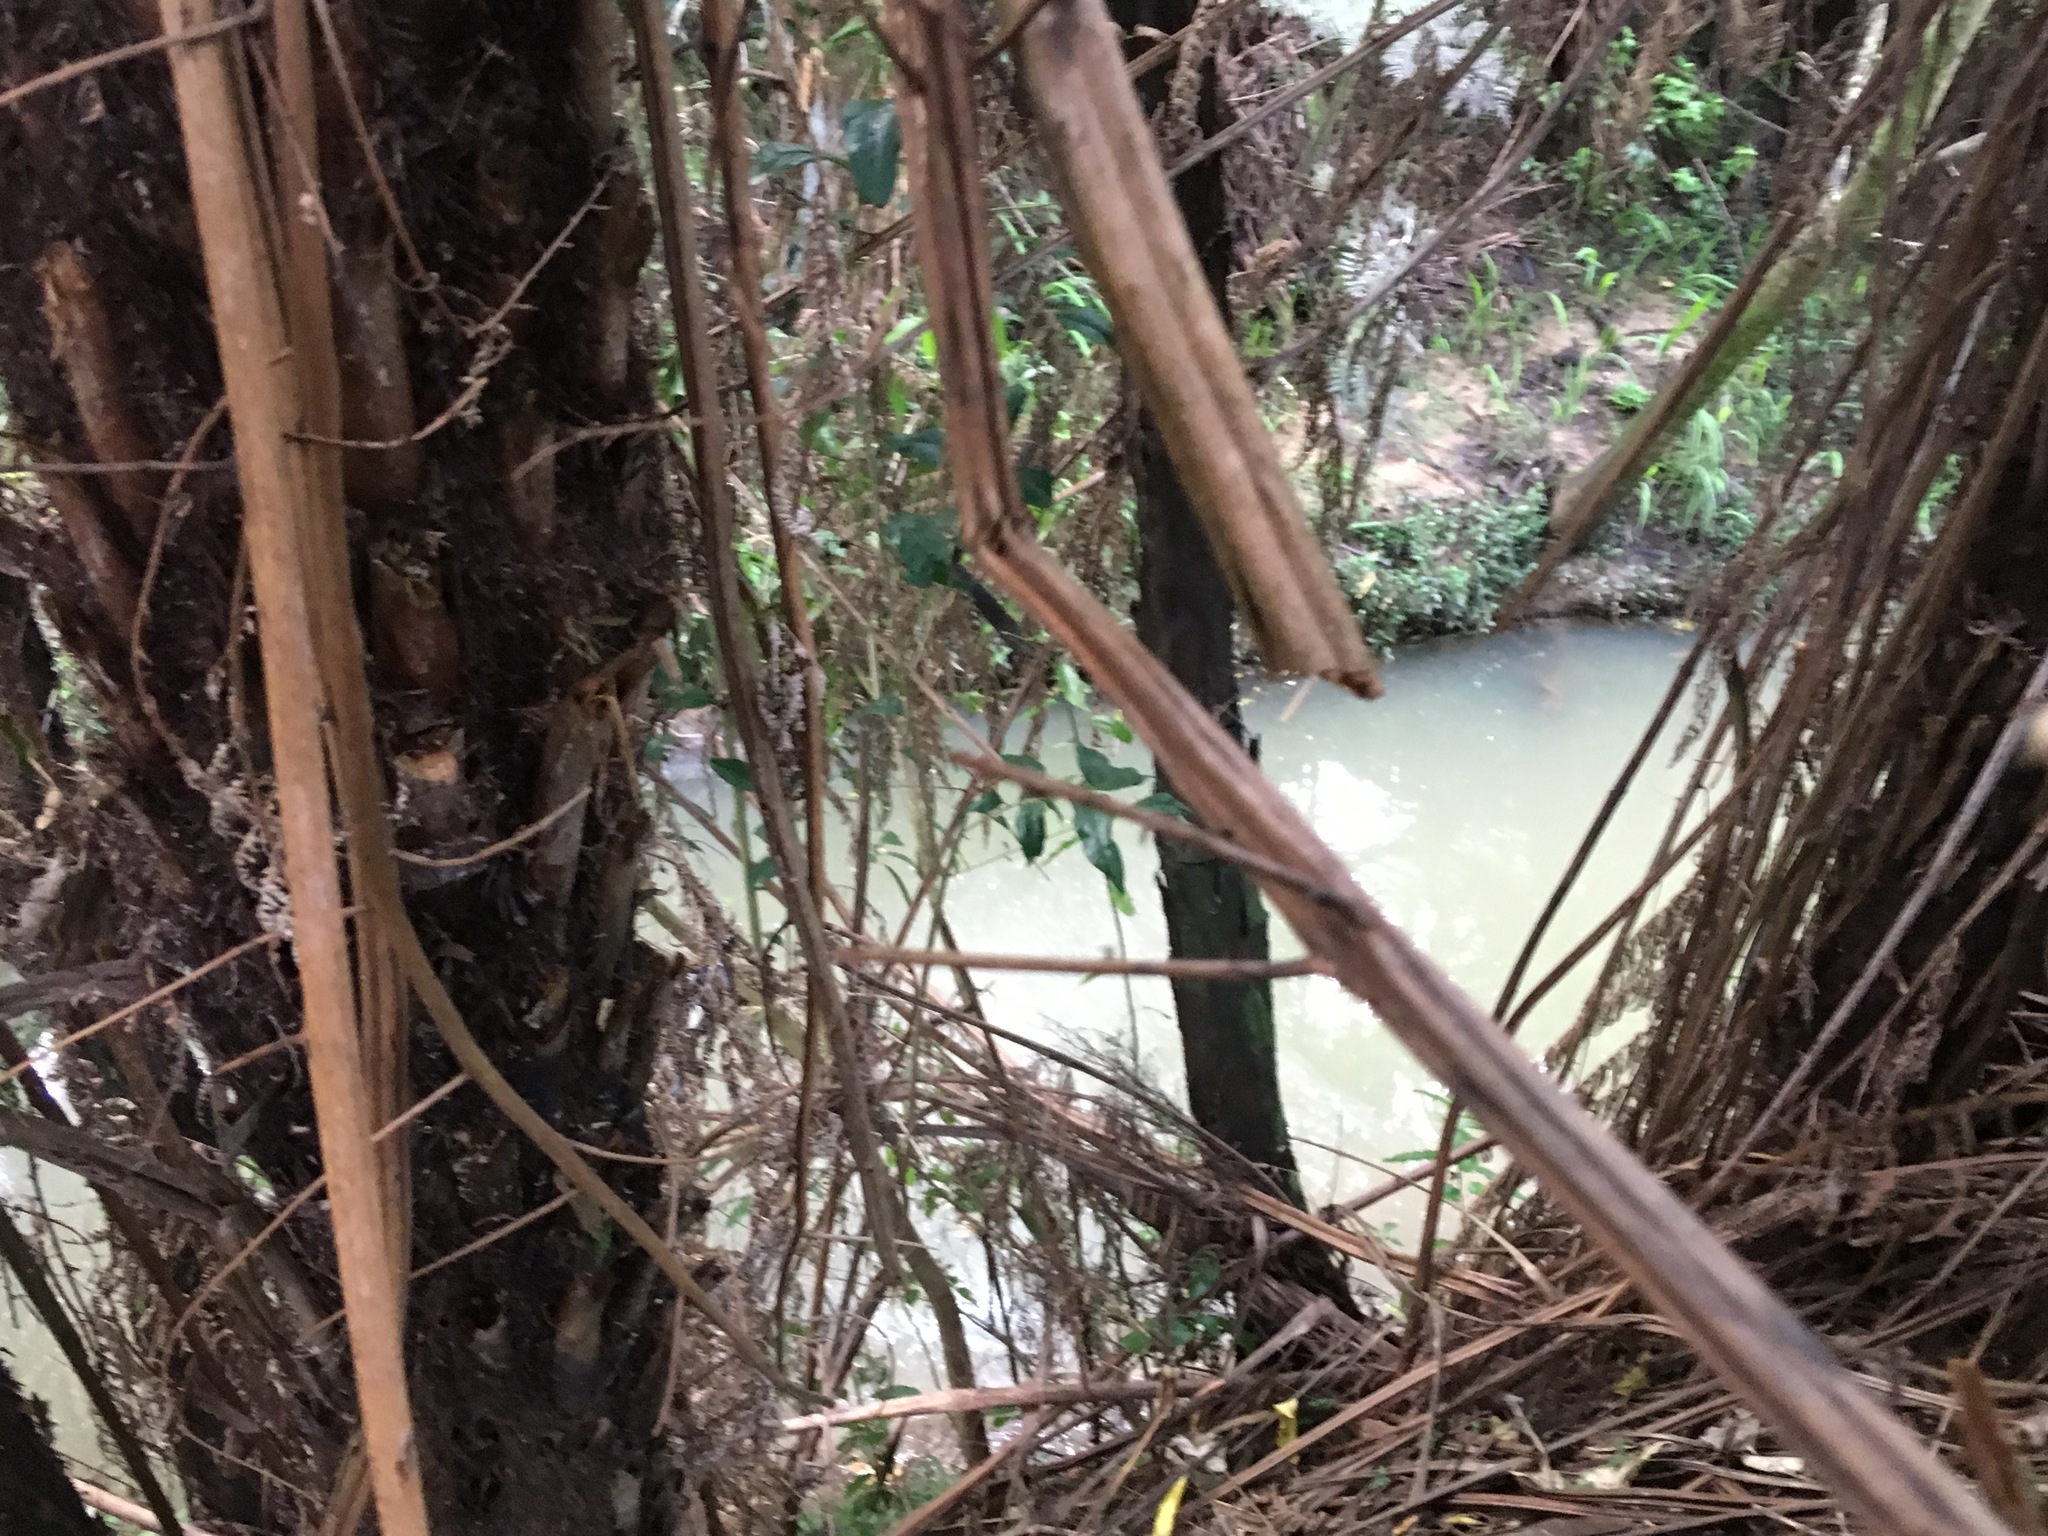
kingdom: Plantae
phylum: Tracheophyta
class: Polypodiopsida
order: Cyatheales
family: Cyatheaceae
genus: Alsophila
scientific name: Alsophila dealbata
